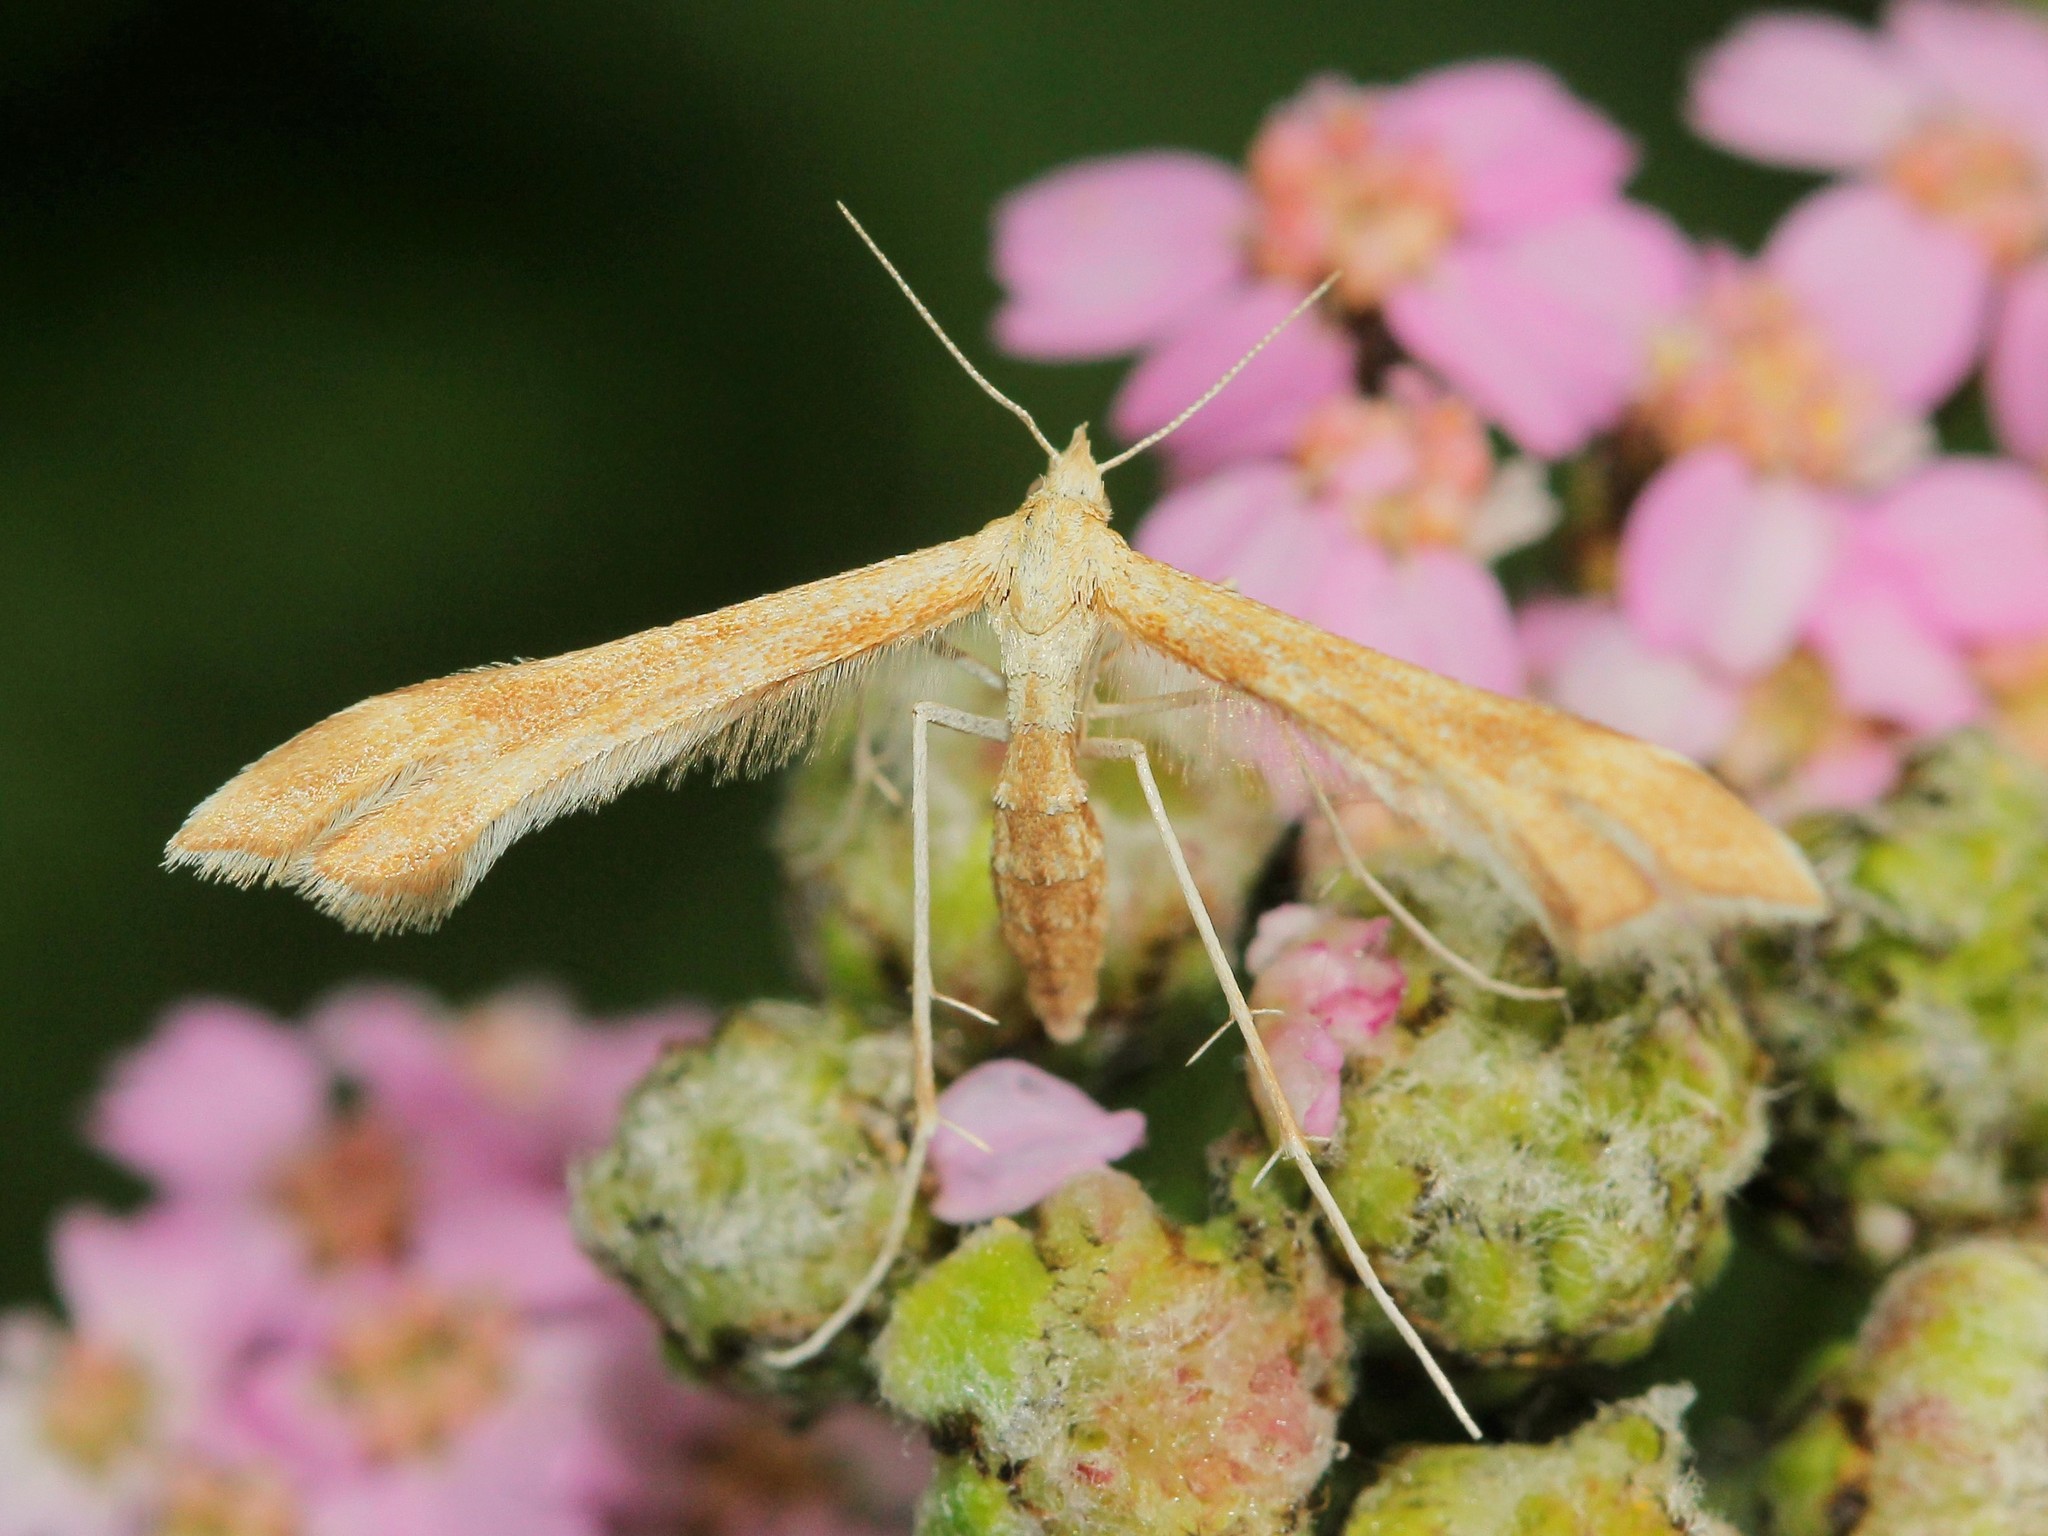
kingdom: Animalia
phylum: Arthropoda
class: Insecta
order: Lepidoptera
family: Pterophoridae
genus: Gillmeria
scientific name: Gillmeria pallidactyla
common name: Yarrow plume
